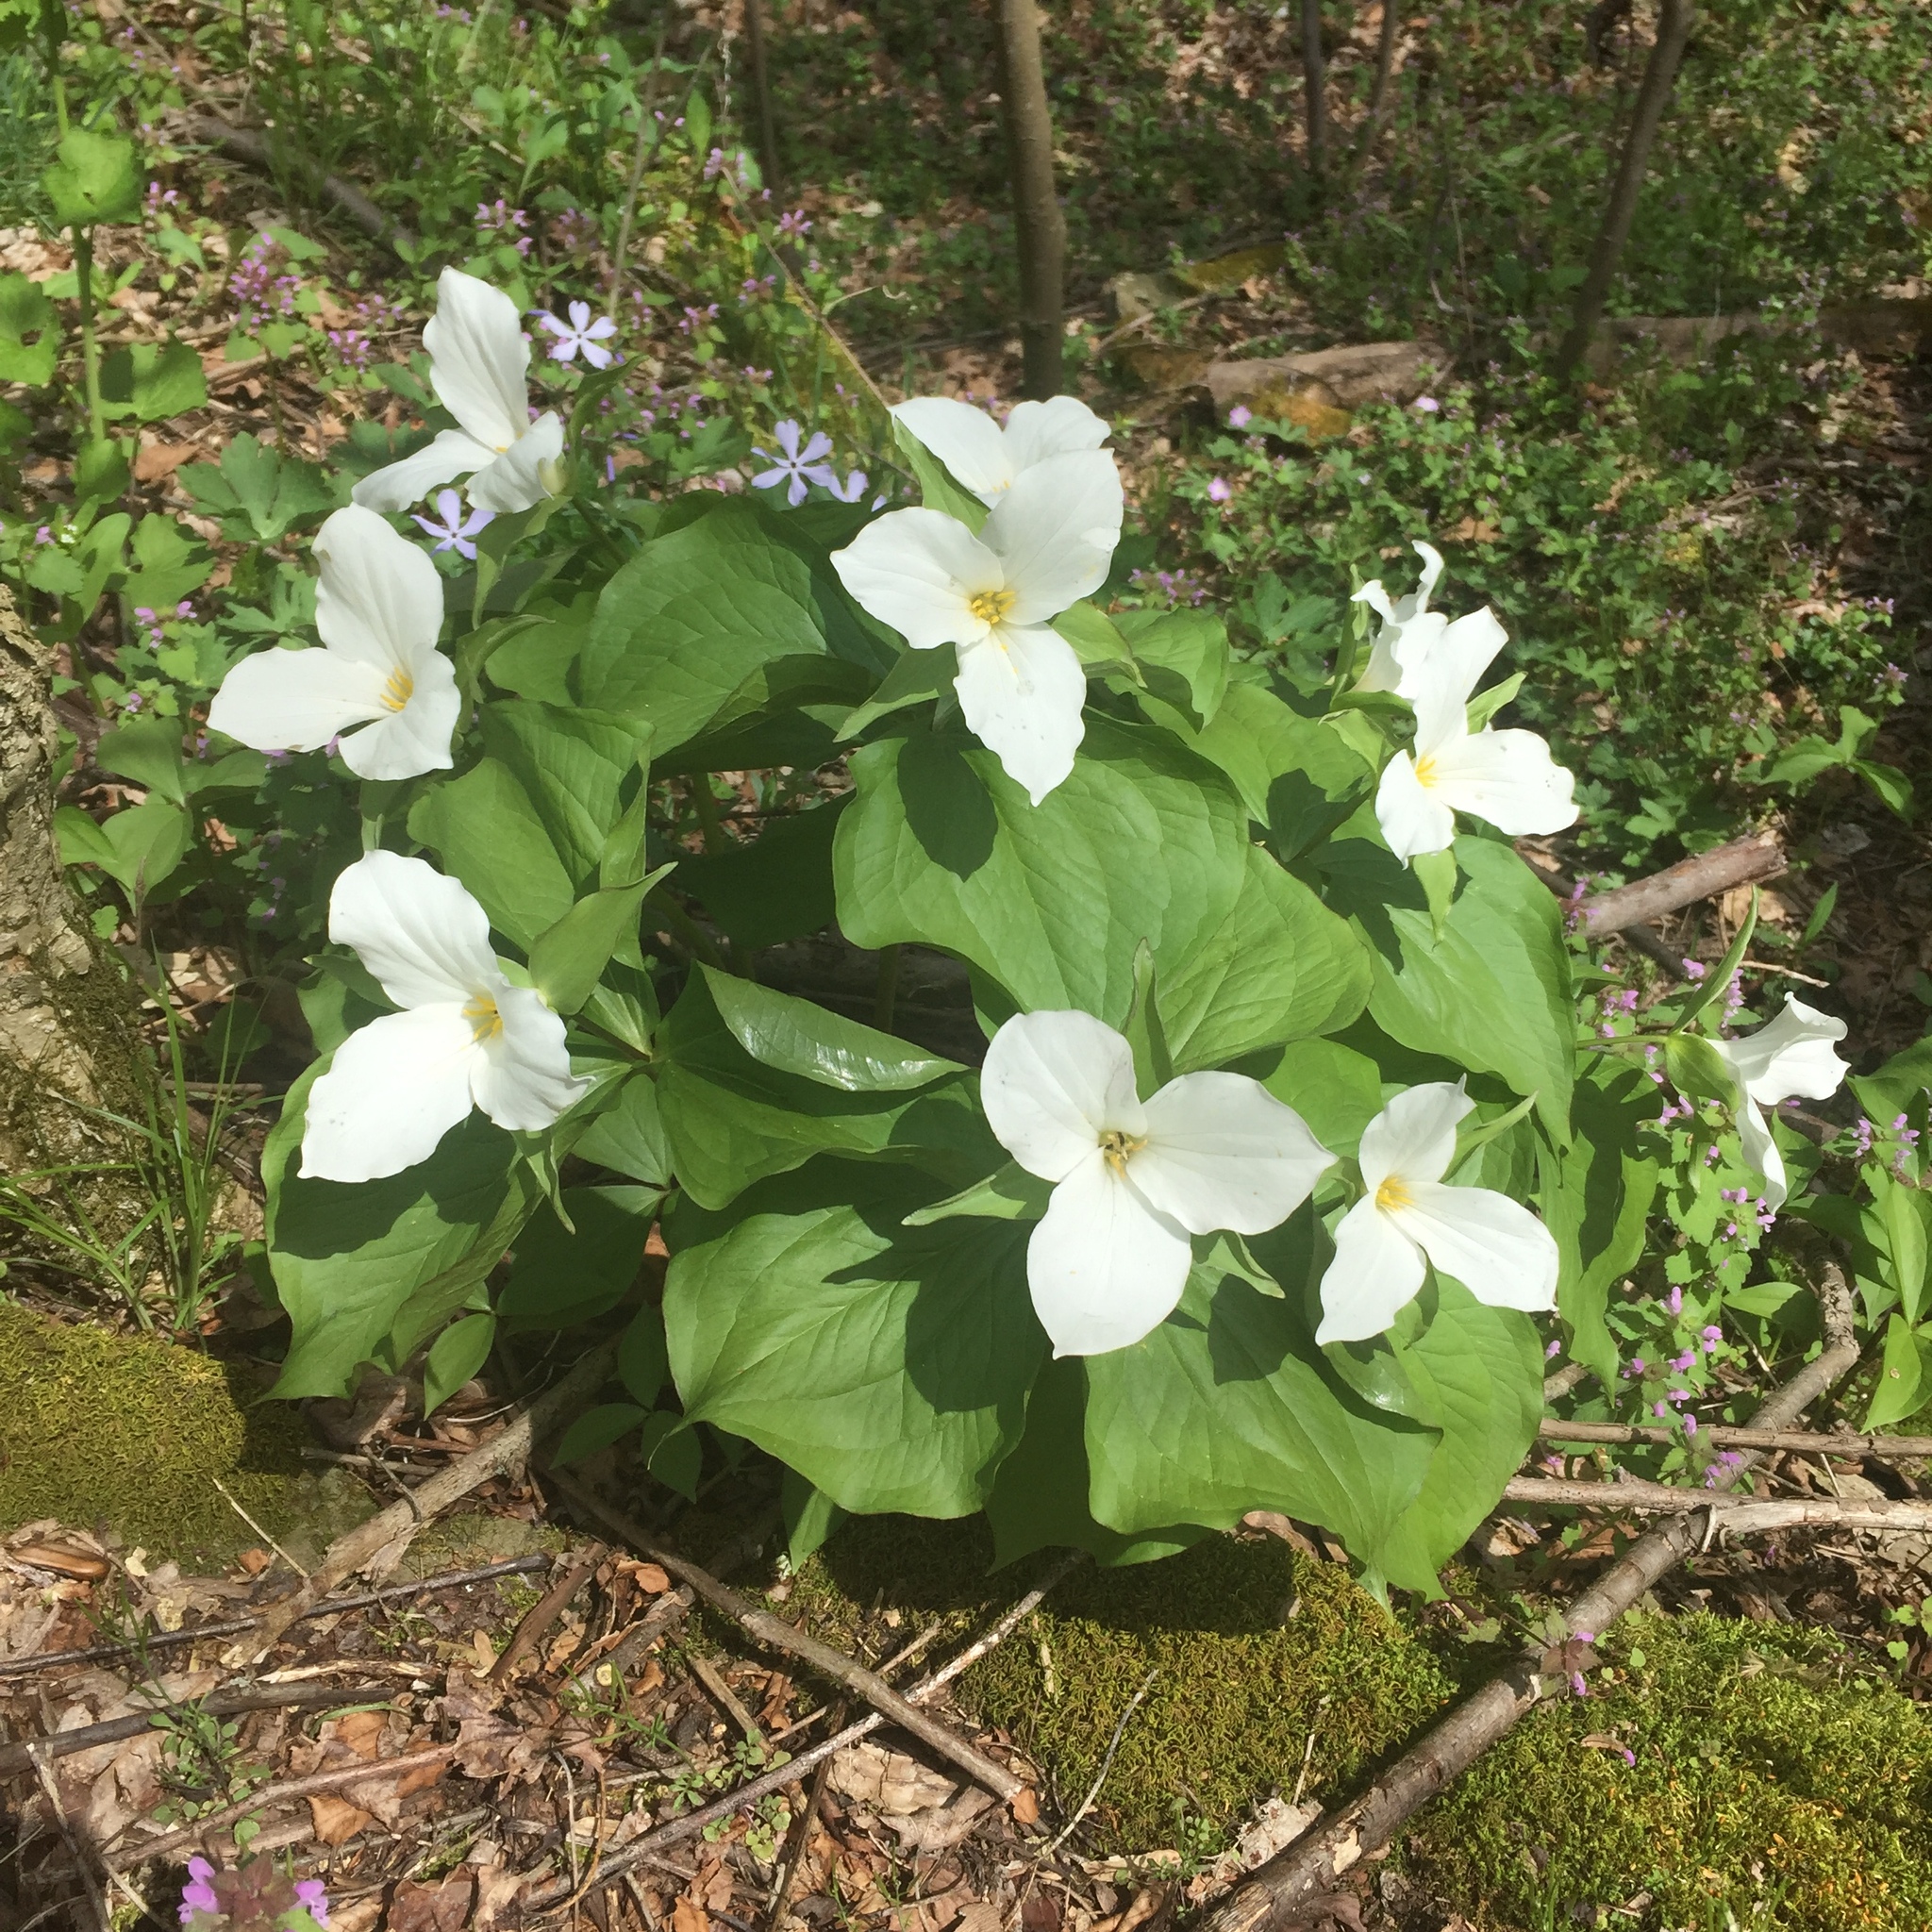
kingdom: Plantae
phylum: Tracheophyta
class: Liliopsida
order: Liliales
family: Melanthiaceae
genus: Trillium
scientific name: Trillium grandiflorum
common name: Great white trillium
